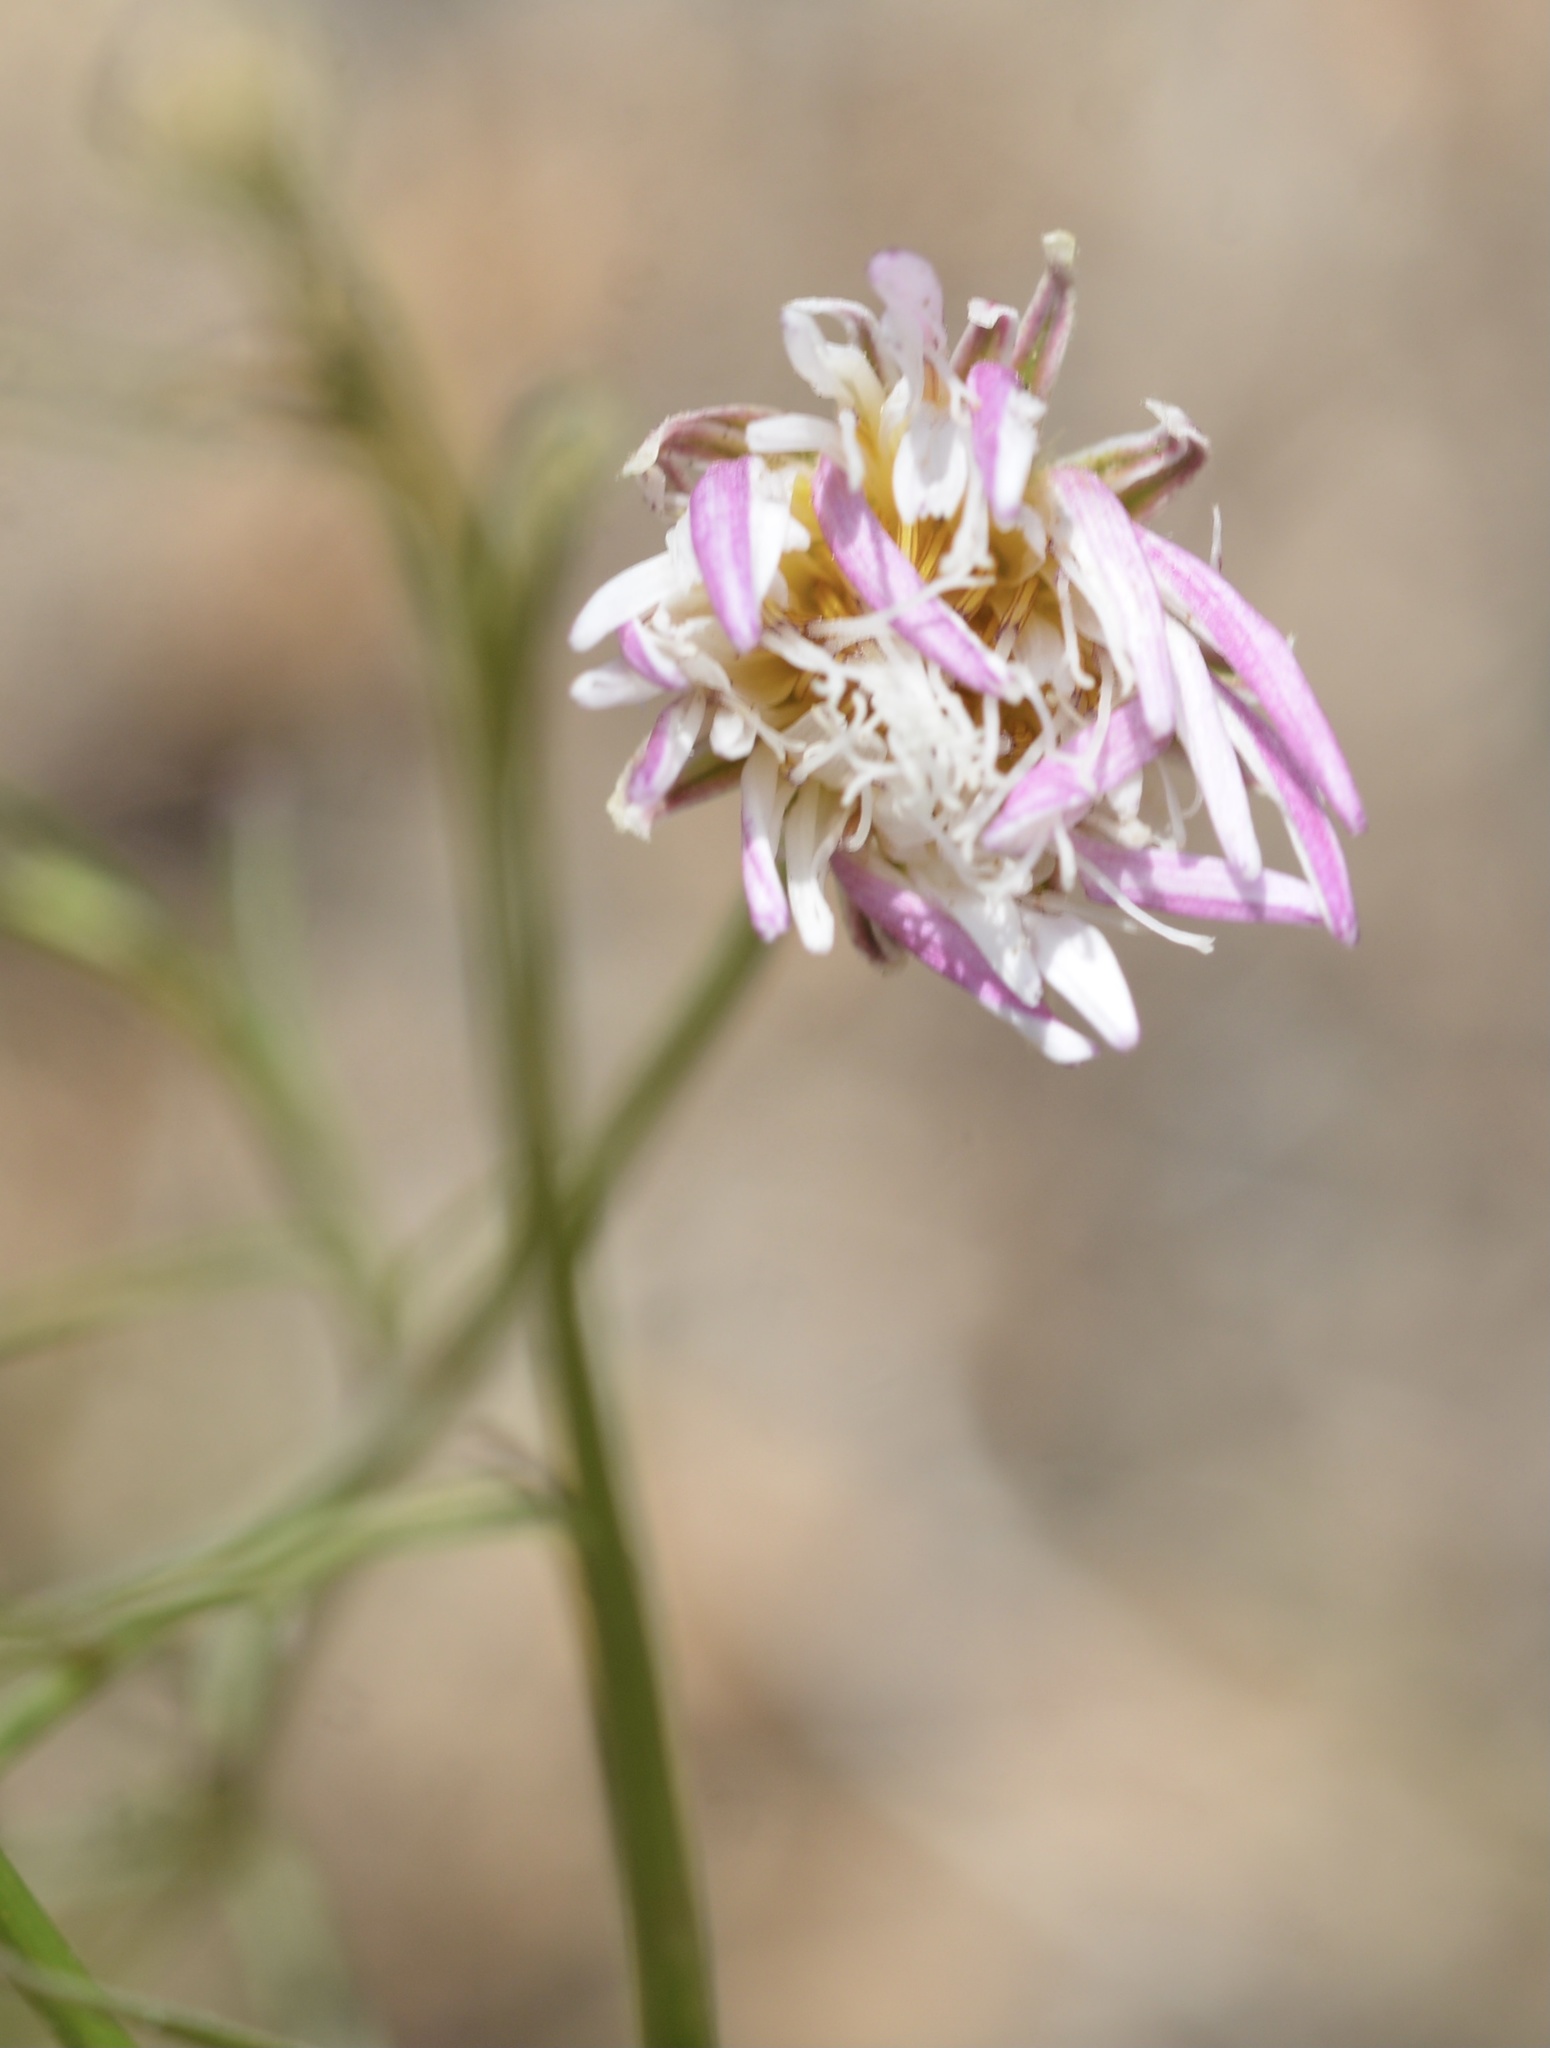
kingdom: Plantae
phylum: Tracheophyta
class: Magnoliopsida
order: Asterales
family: Asteraceae
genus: Malacothrix
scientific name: Malacothrix saxatilis
